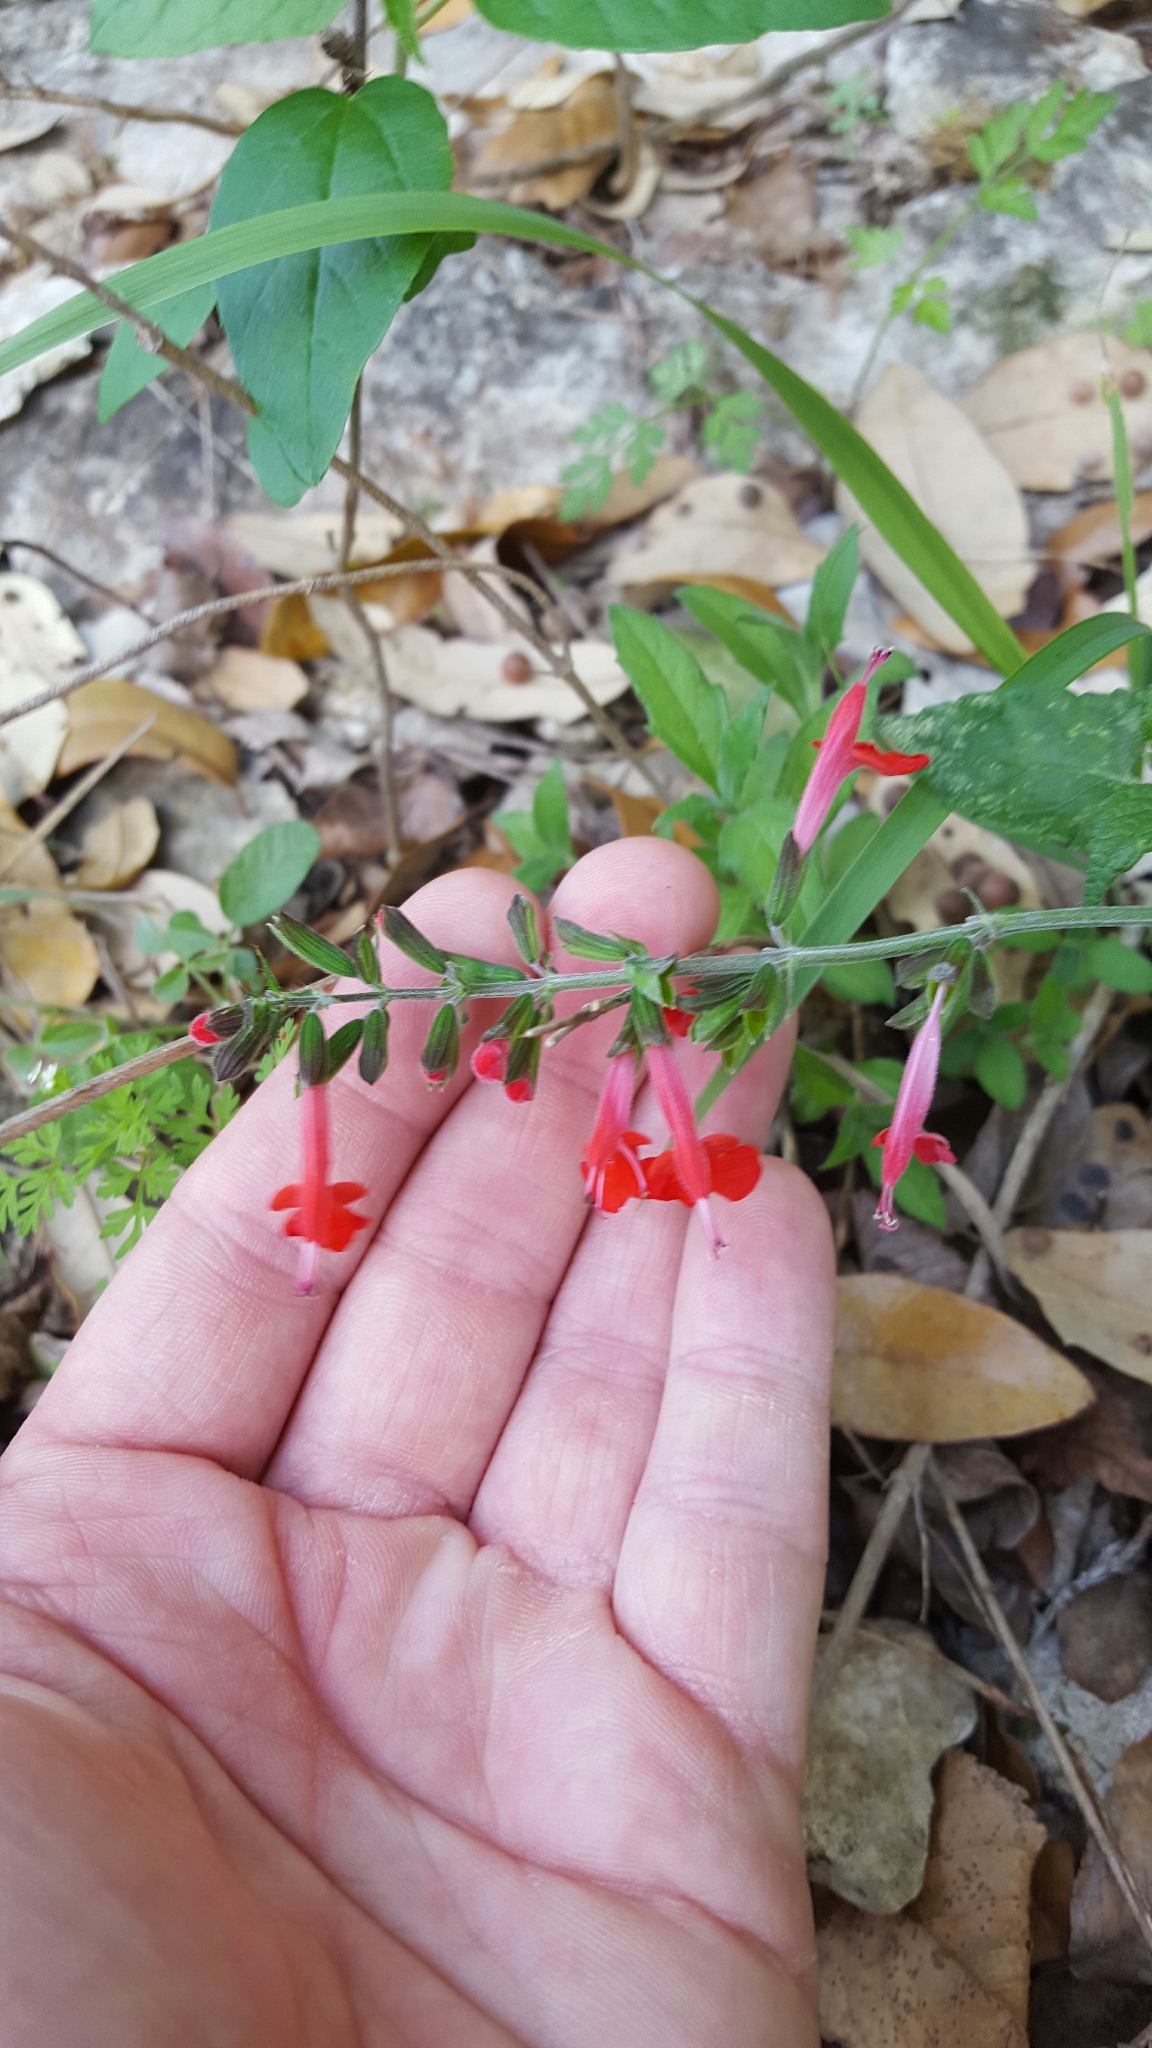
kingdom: Plantae
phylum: Tracheophyta
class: Magnoliopsida
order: Lamiales
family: Lamiaceae
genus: Salvia
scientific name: Salvia coccinea
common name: Blood sage
